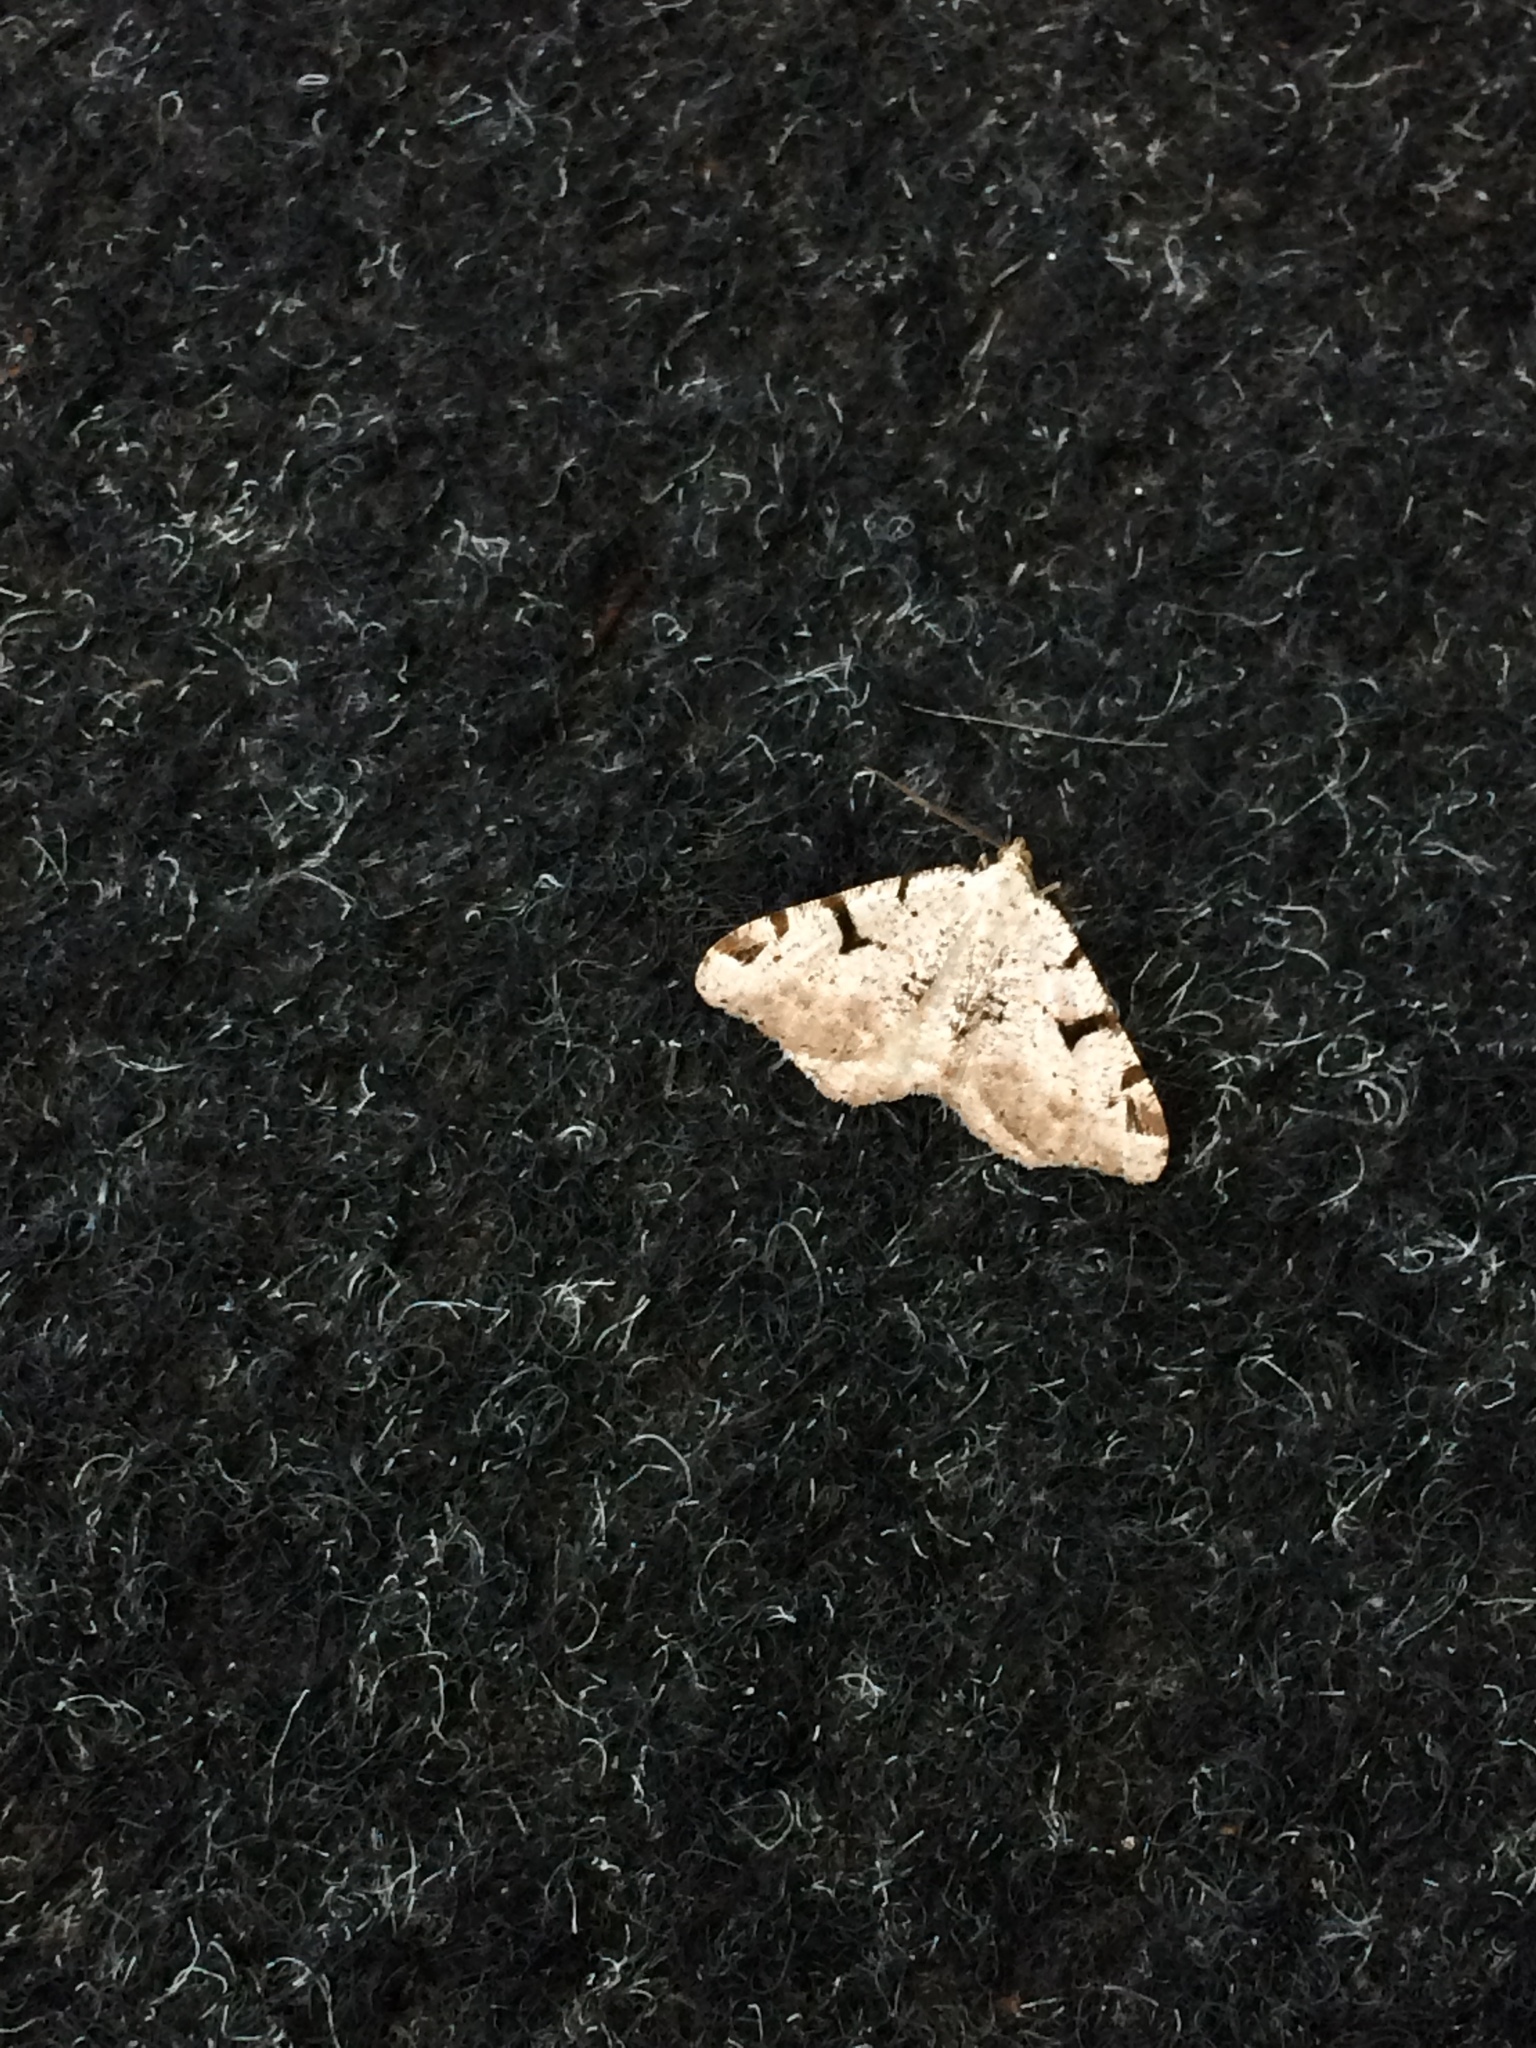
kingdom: Animalia
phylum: Arthropoda
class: Insecta
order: Lepidoptera
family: Geometridae
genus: Macaria
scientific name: Macaria wauaria
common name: V-moth
